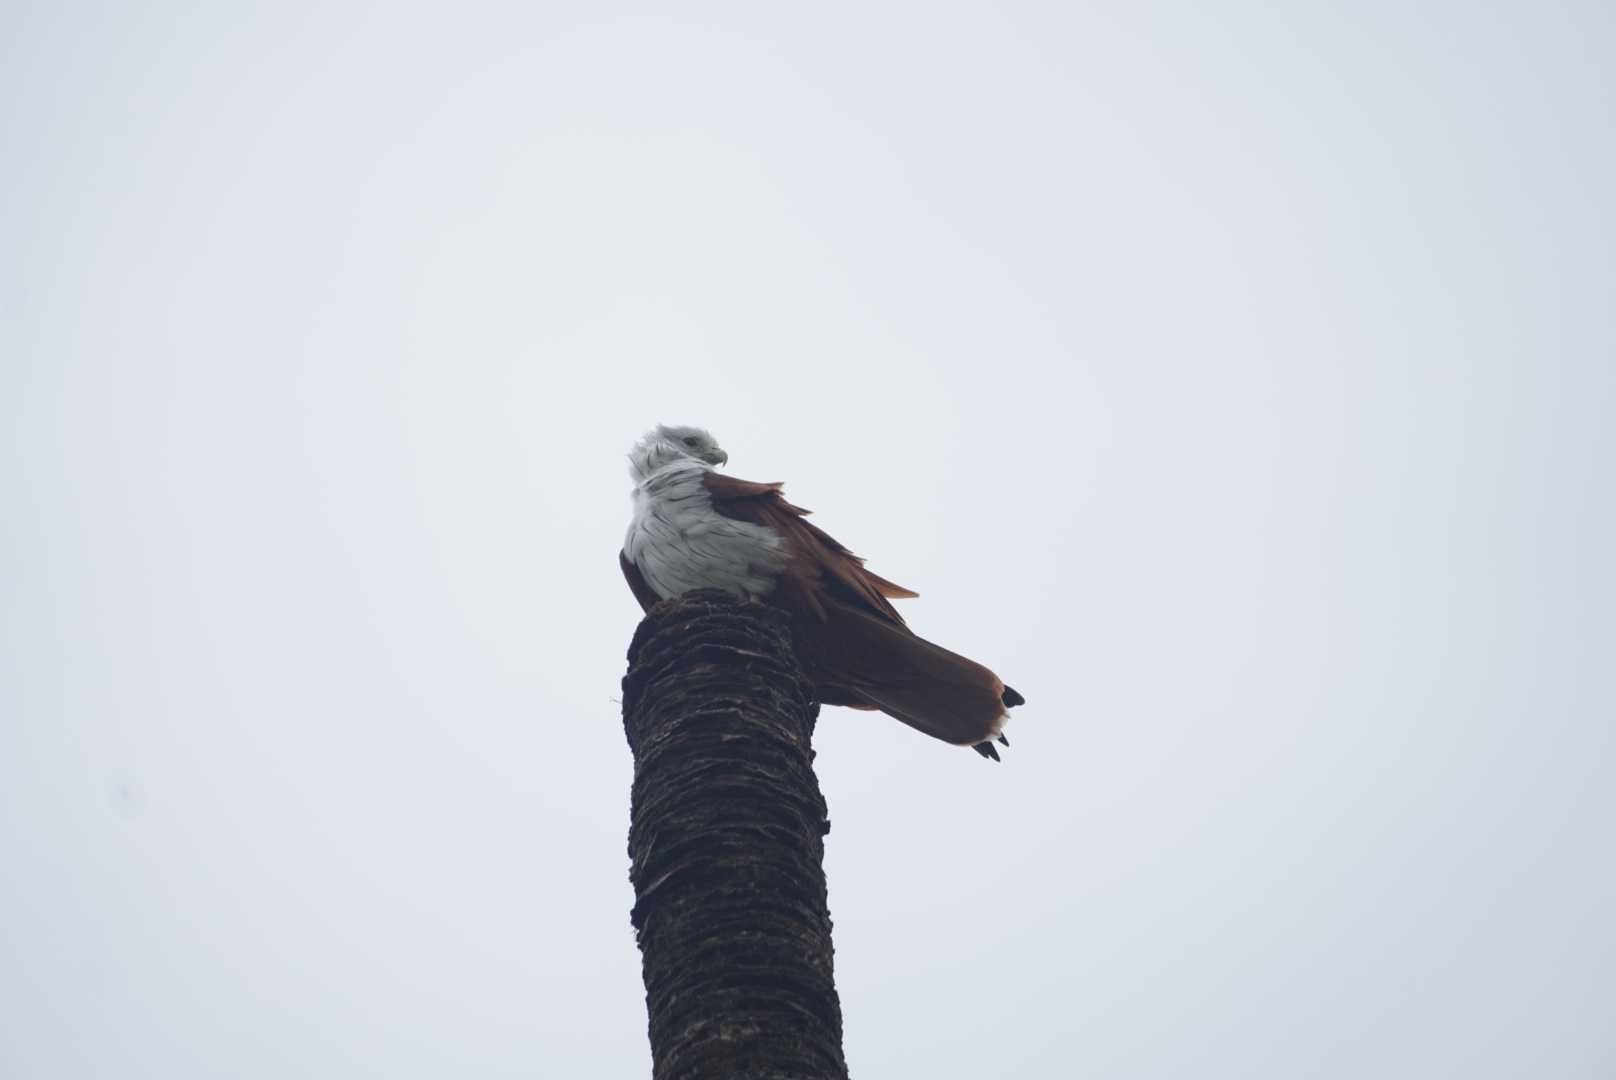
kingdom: Animalia
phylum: Chordata
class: Aves
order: Accipitriformes
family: Accipitridae
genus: Haliastur
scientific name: Haliastur indus
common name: Brahminy kite
